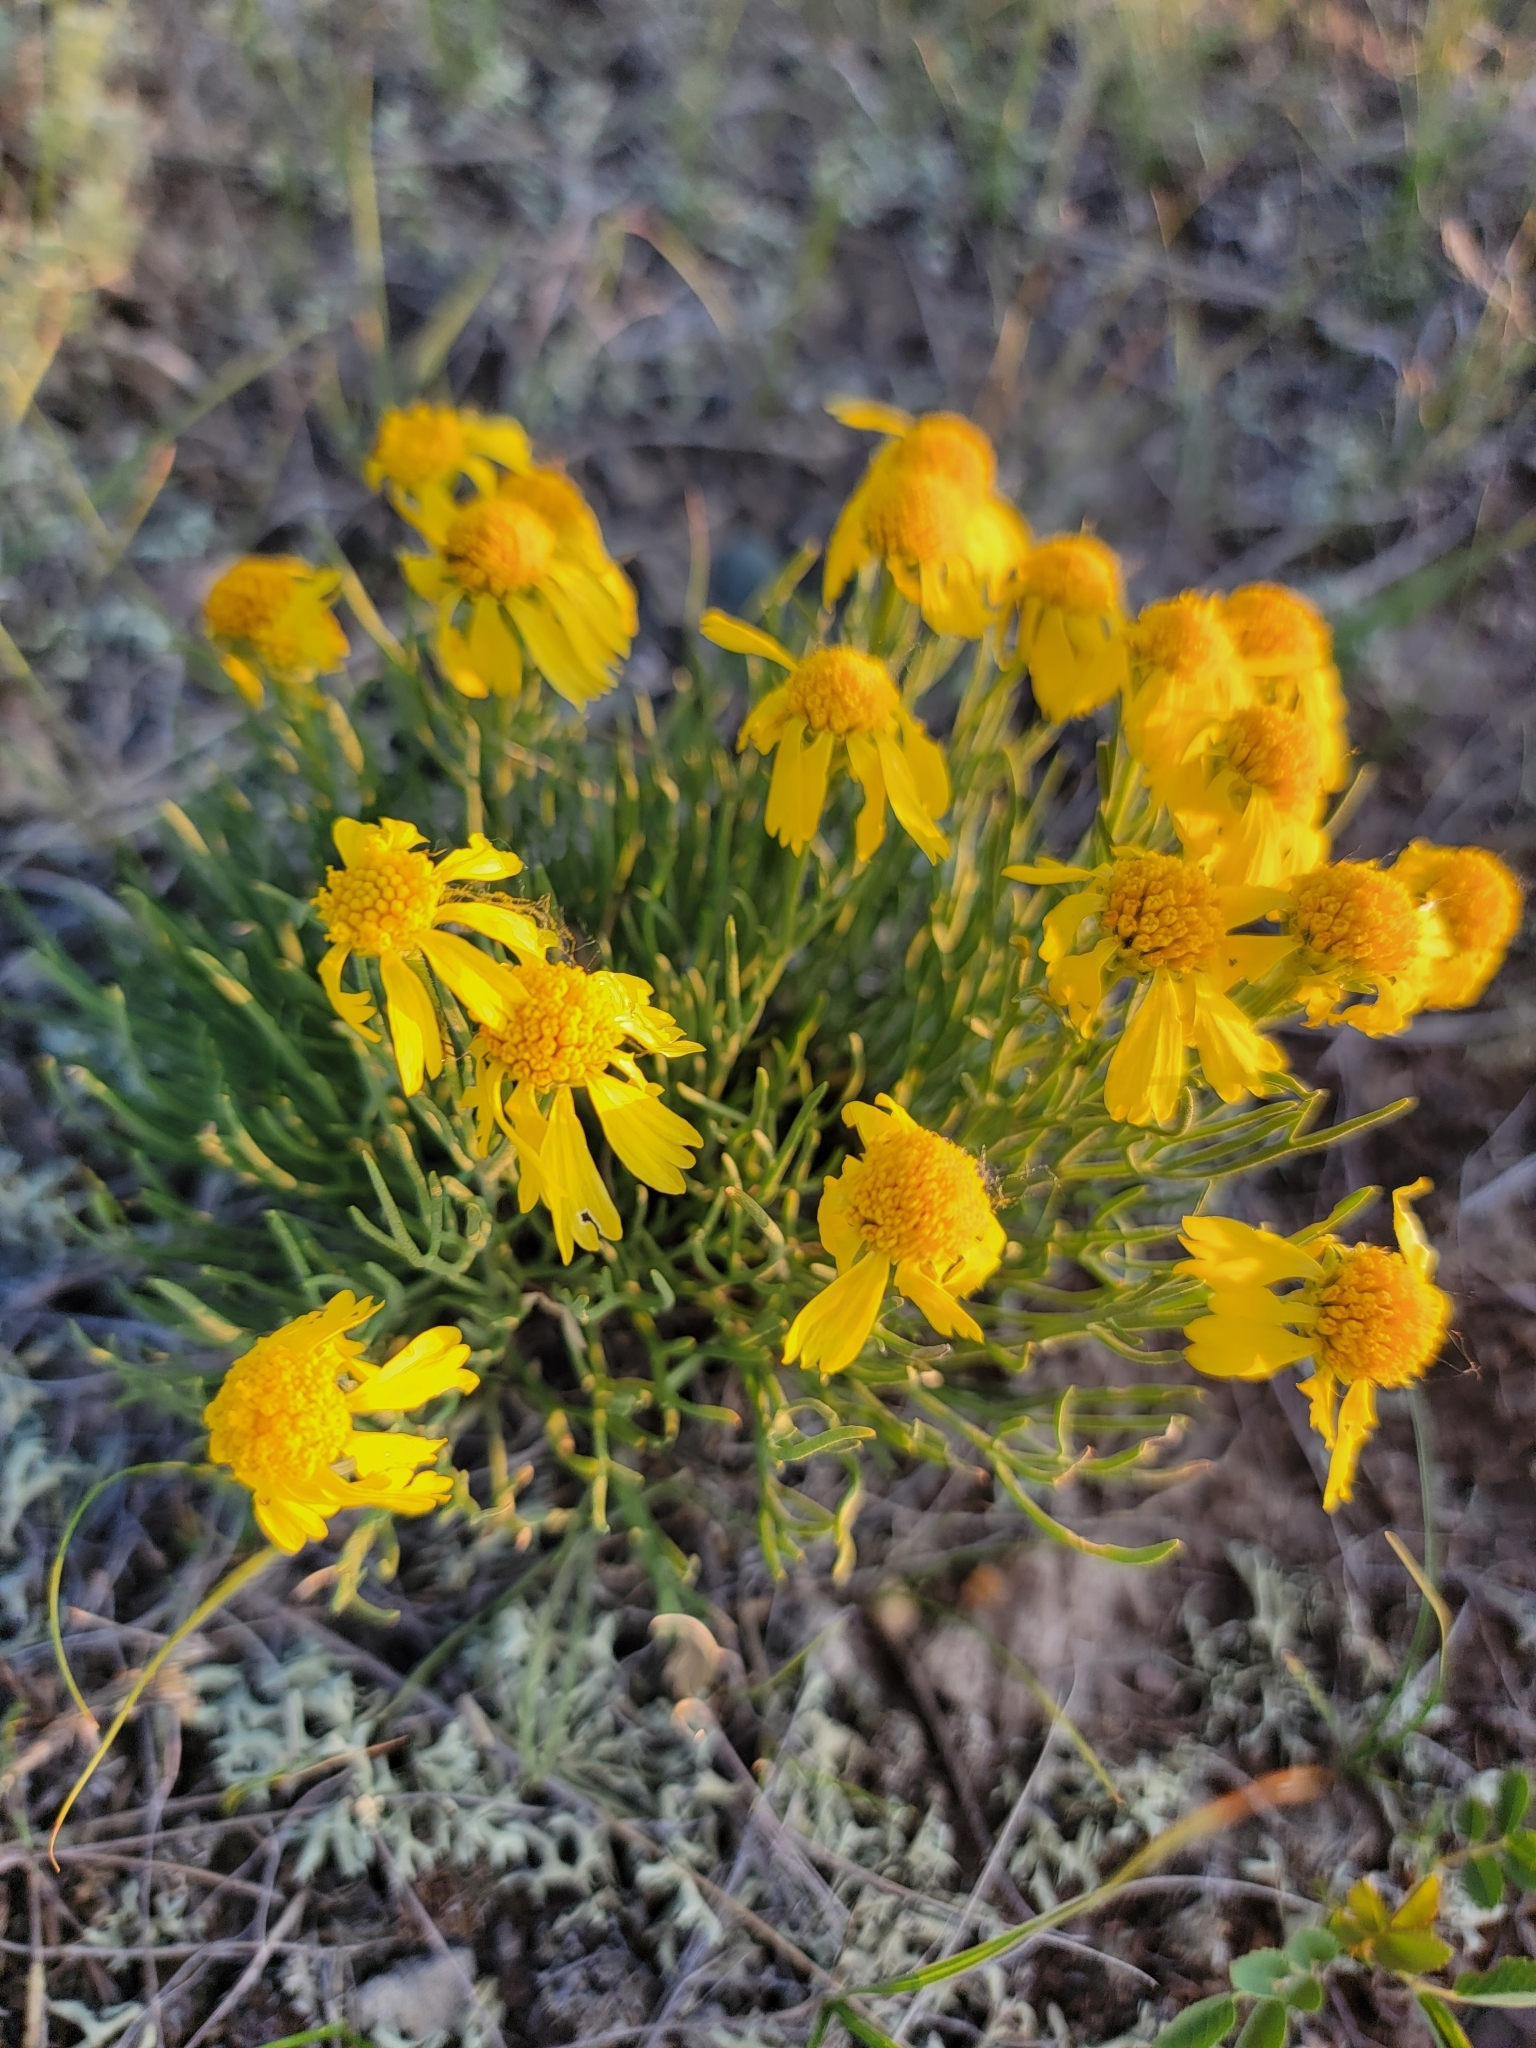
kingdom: Plantae
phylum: Tracheophyta
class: Magnoliopsida
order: Asterales
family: Asteraceae
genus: Hymenoxys
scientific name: Hymenoxys richardsonii
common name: Pingue rubberweed
